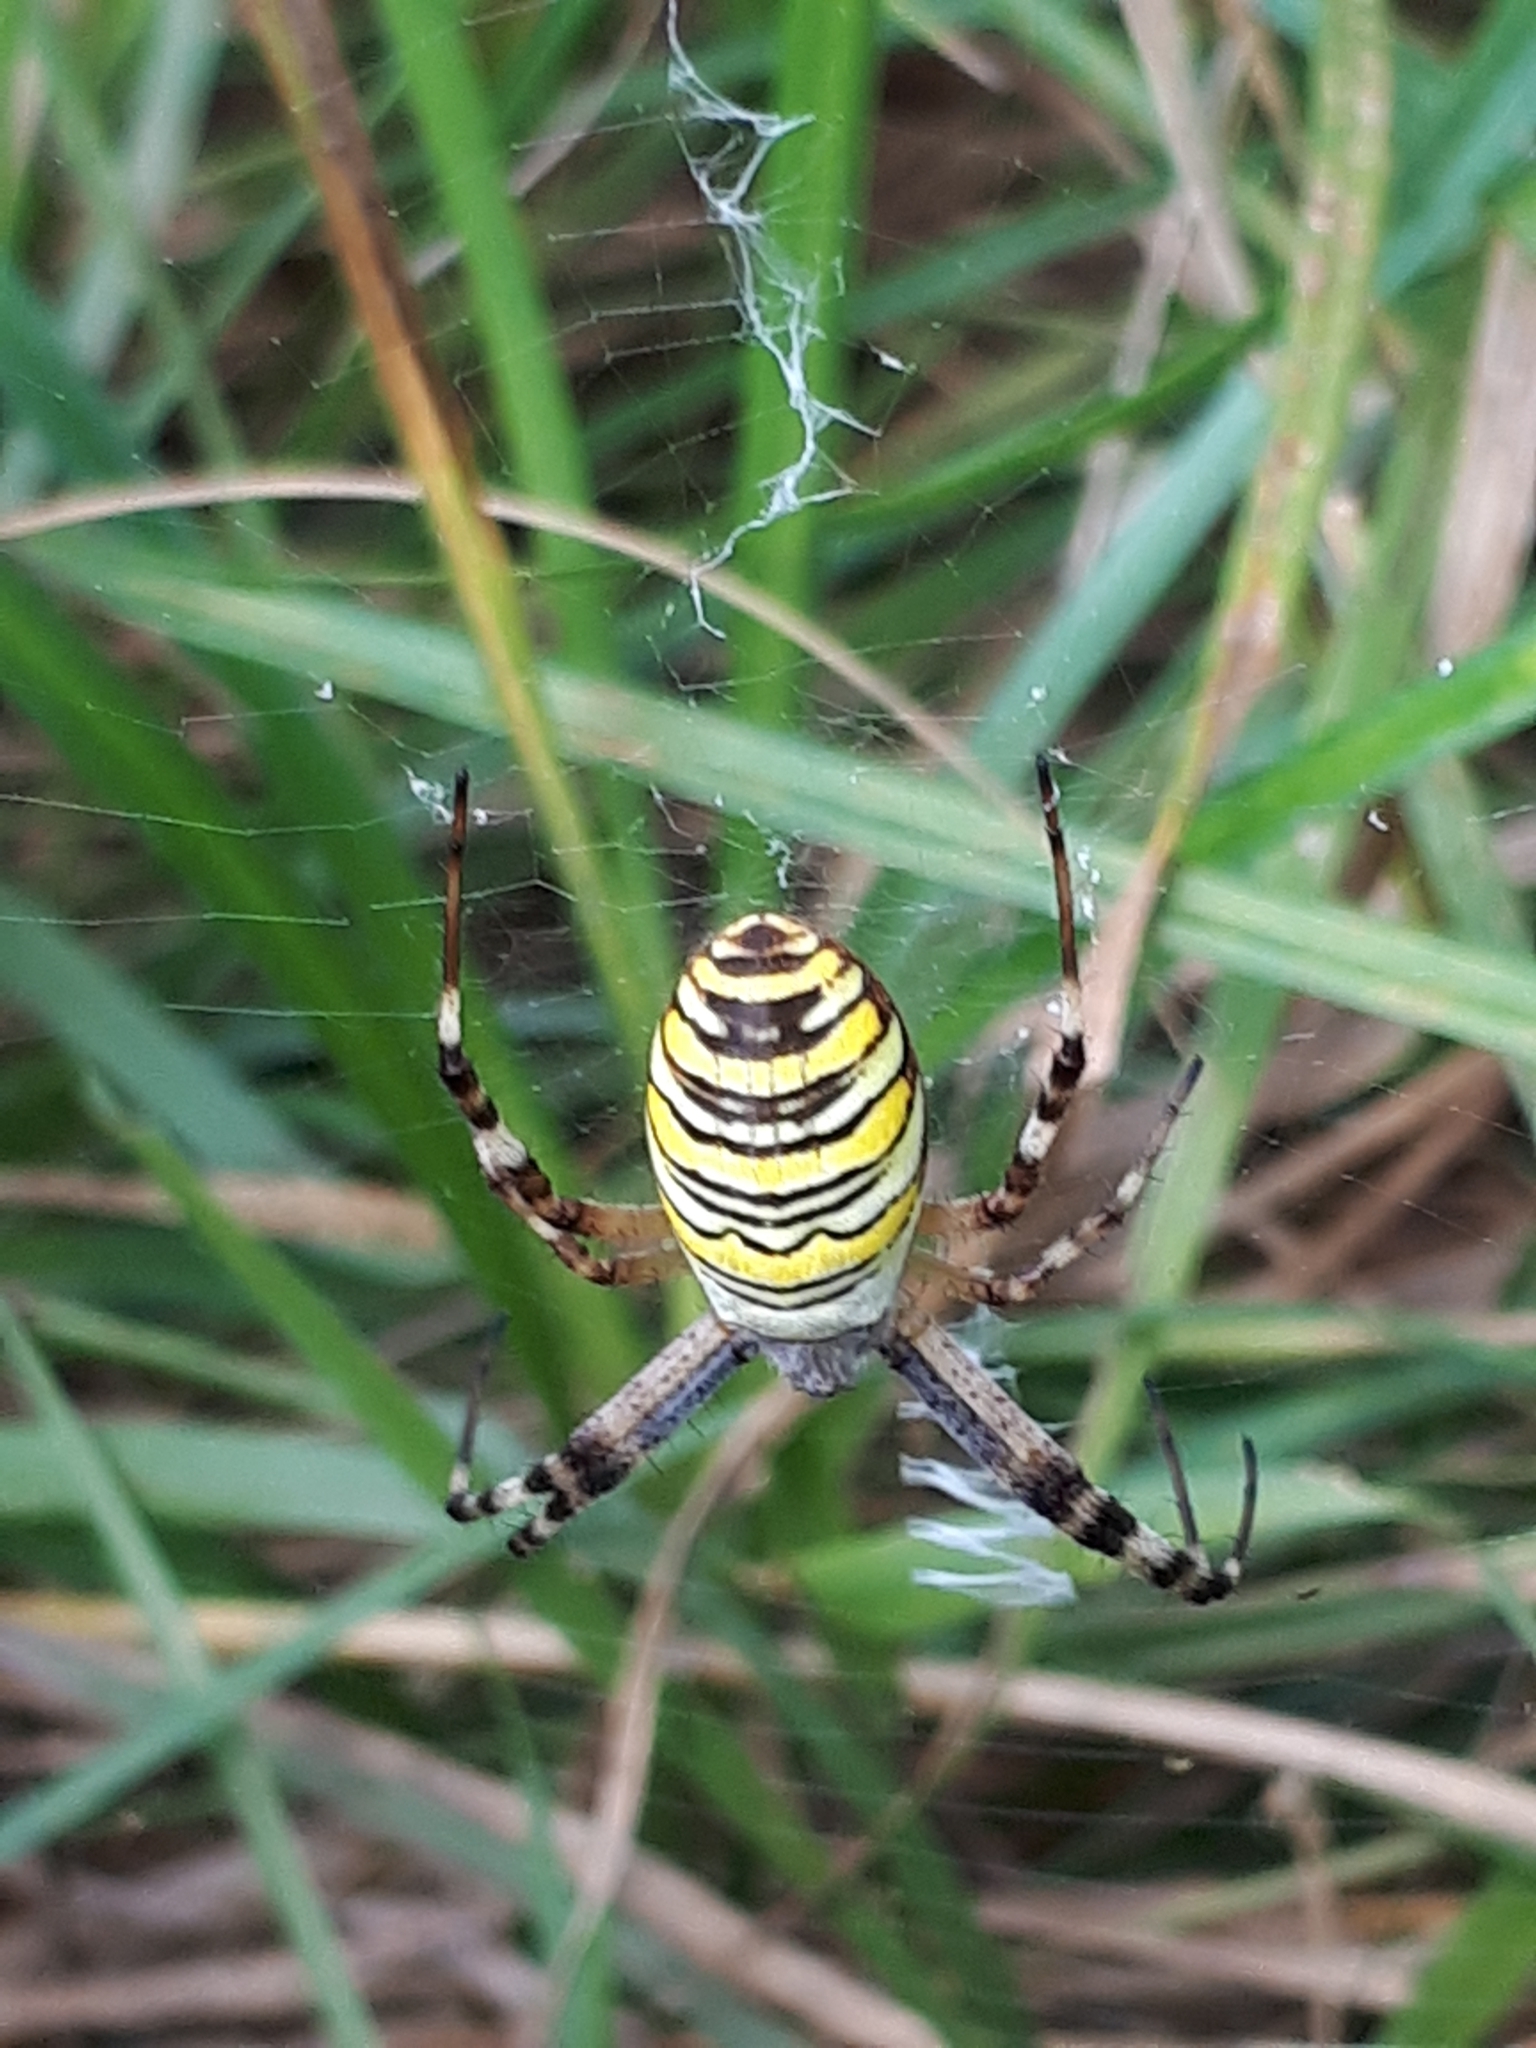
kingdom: Animalia
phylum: Arthropoda
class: Arachnida
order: Araneae
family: Araneidae
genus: Argiope
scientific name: Argiope bruennichi
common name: Wasp spider
